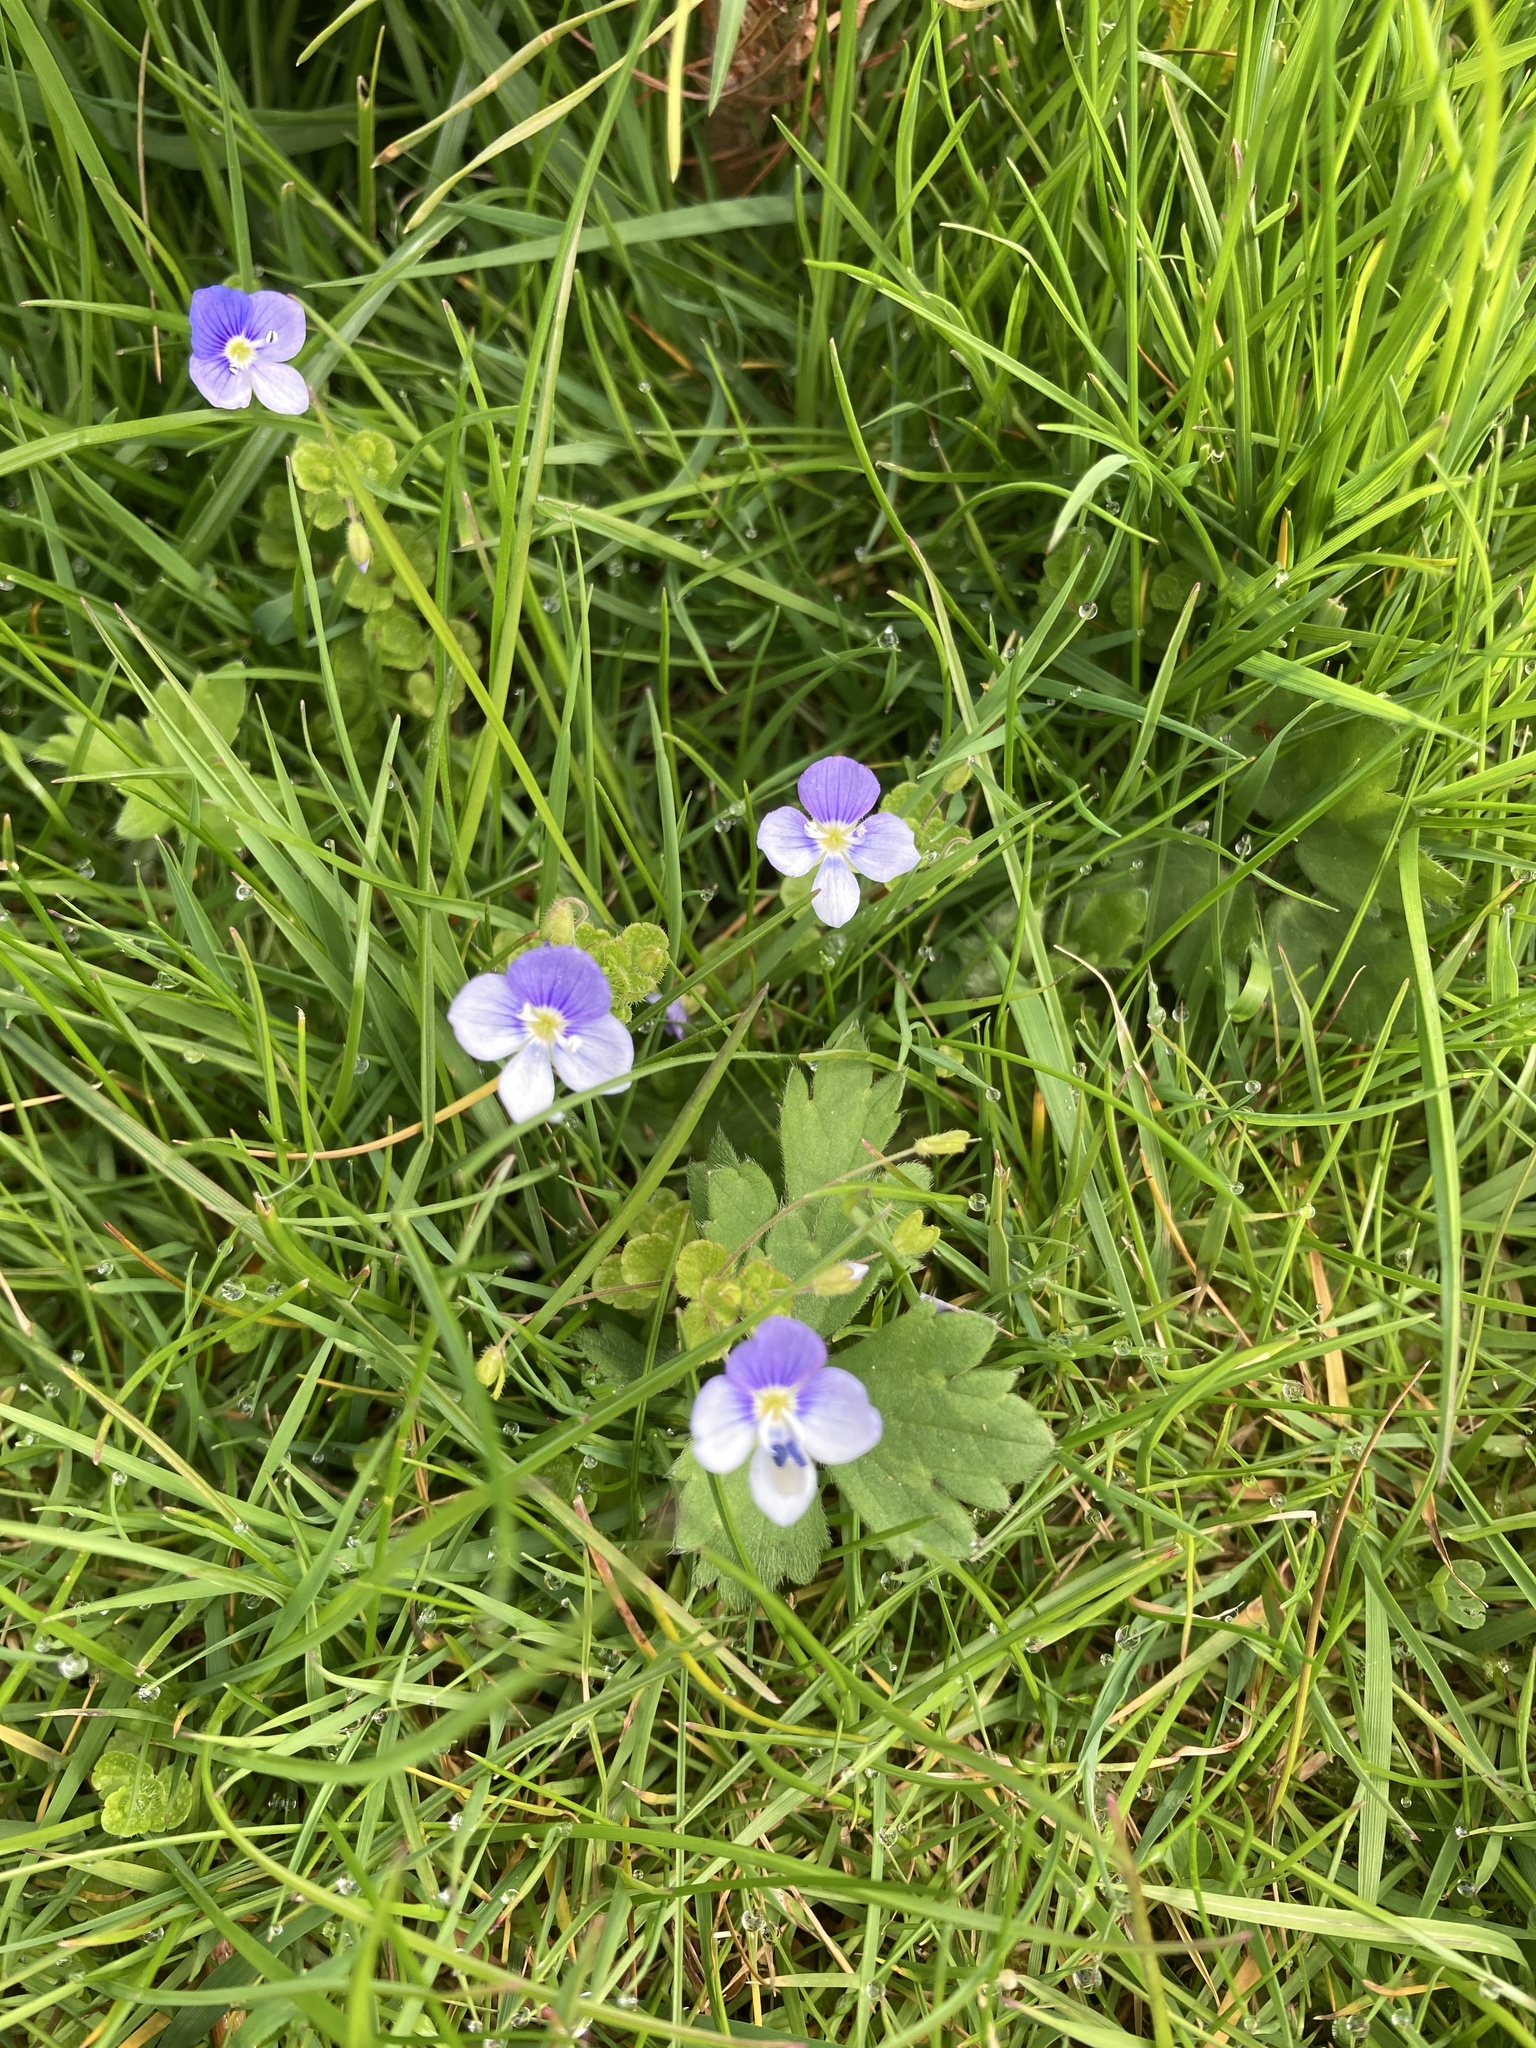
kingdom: Plantae
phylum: Tracheophyta
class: Magnoliopsida
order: Lamiales
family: Plantaginaceae
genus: Veronica
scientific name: Veronica filiformis
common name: Slender speedwell
